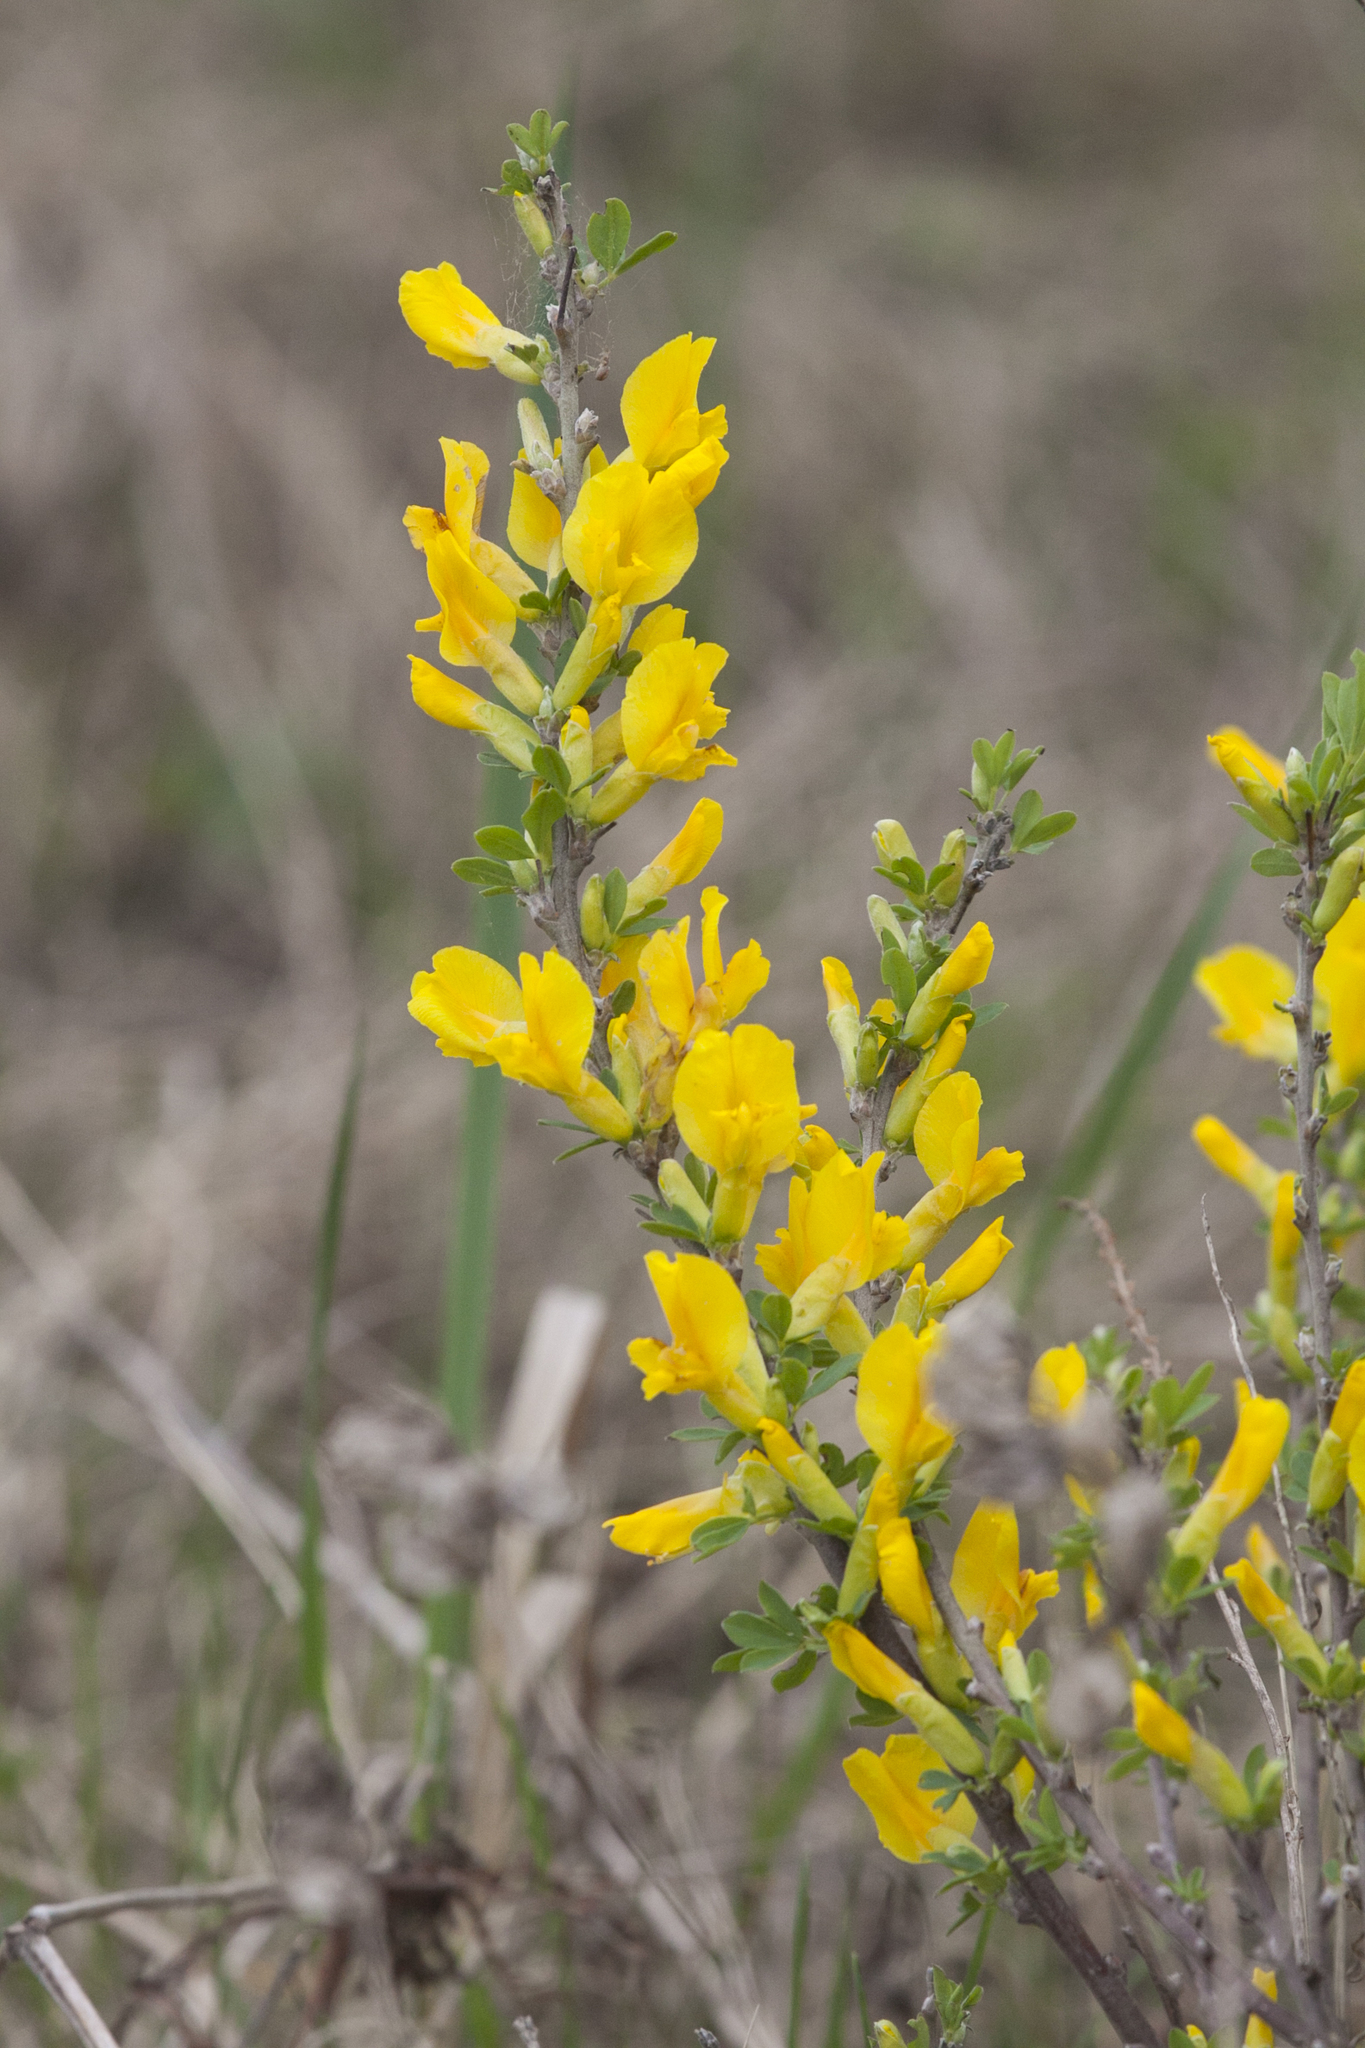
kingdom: Plantae
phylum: Tracheophyta
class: Magnoliopsida
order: Fabales
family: Fabaceae
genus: Chamaecytisus
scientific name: Chamaecytisus ruthenicus
